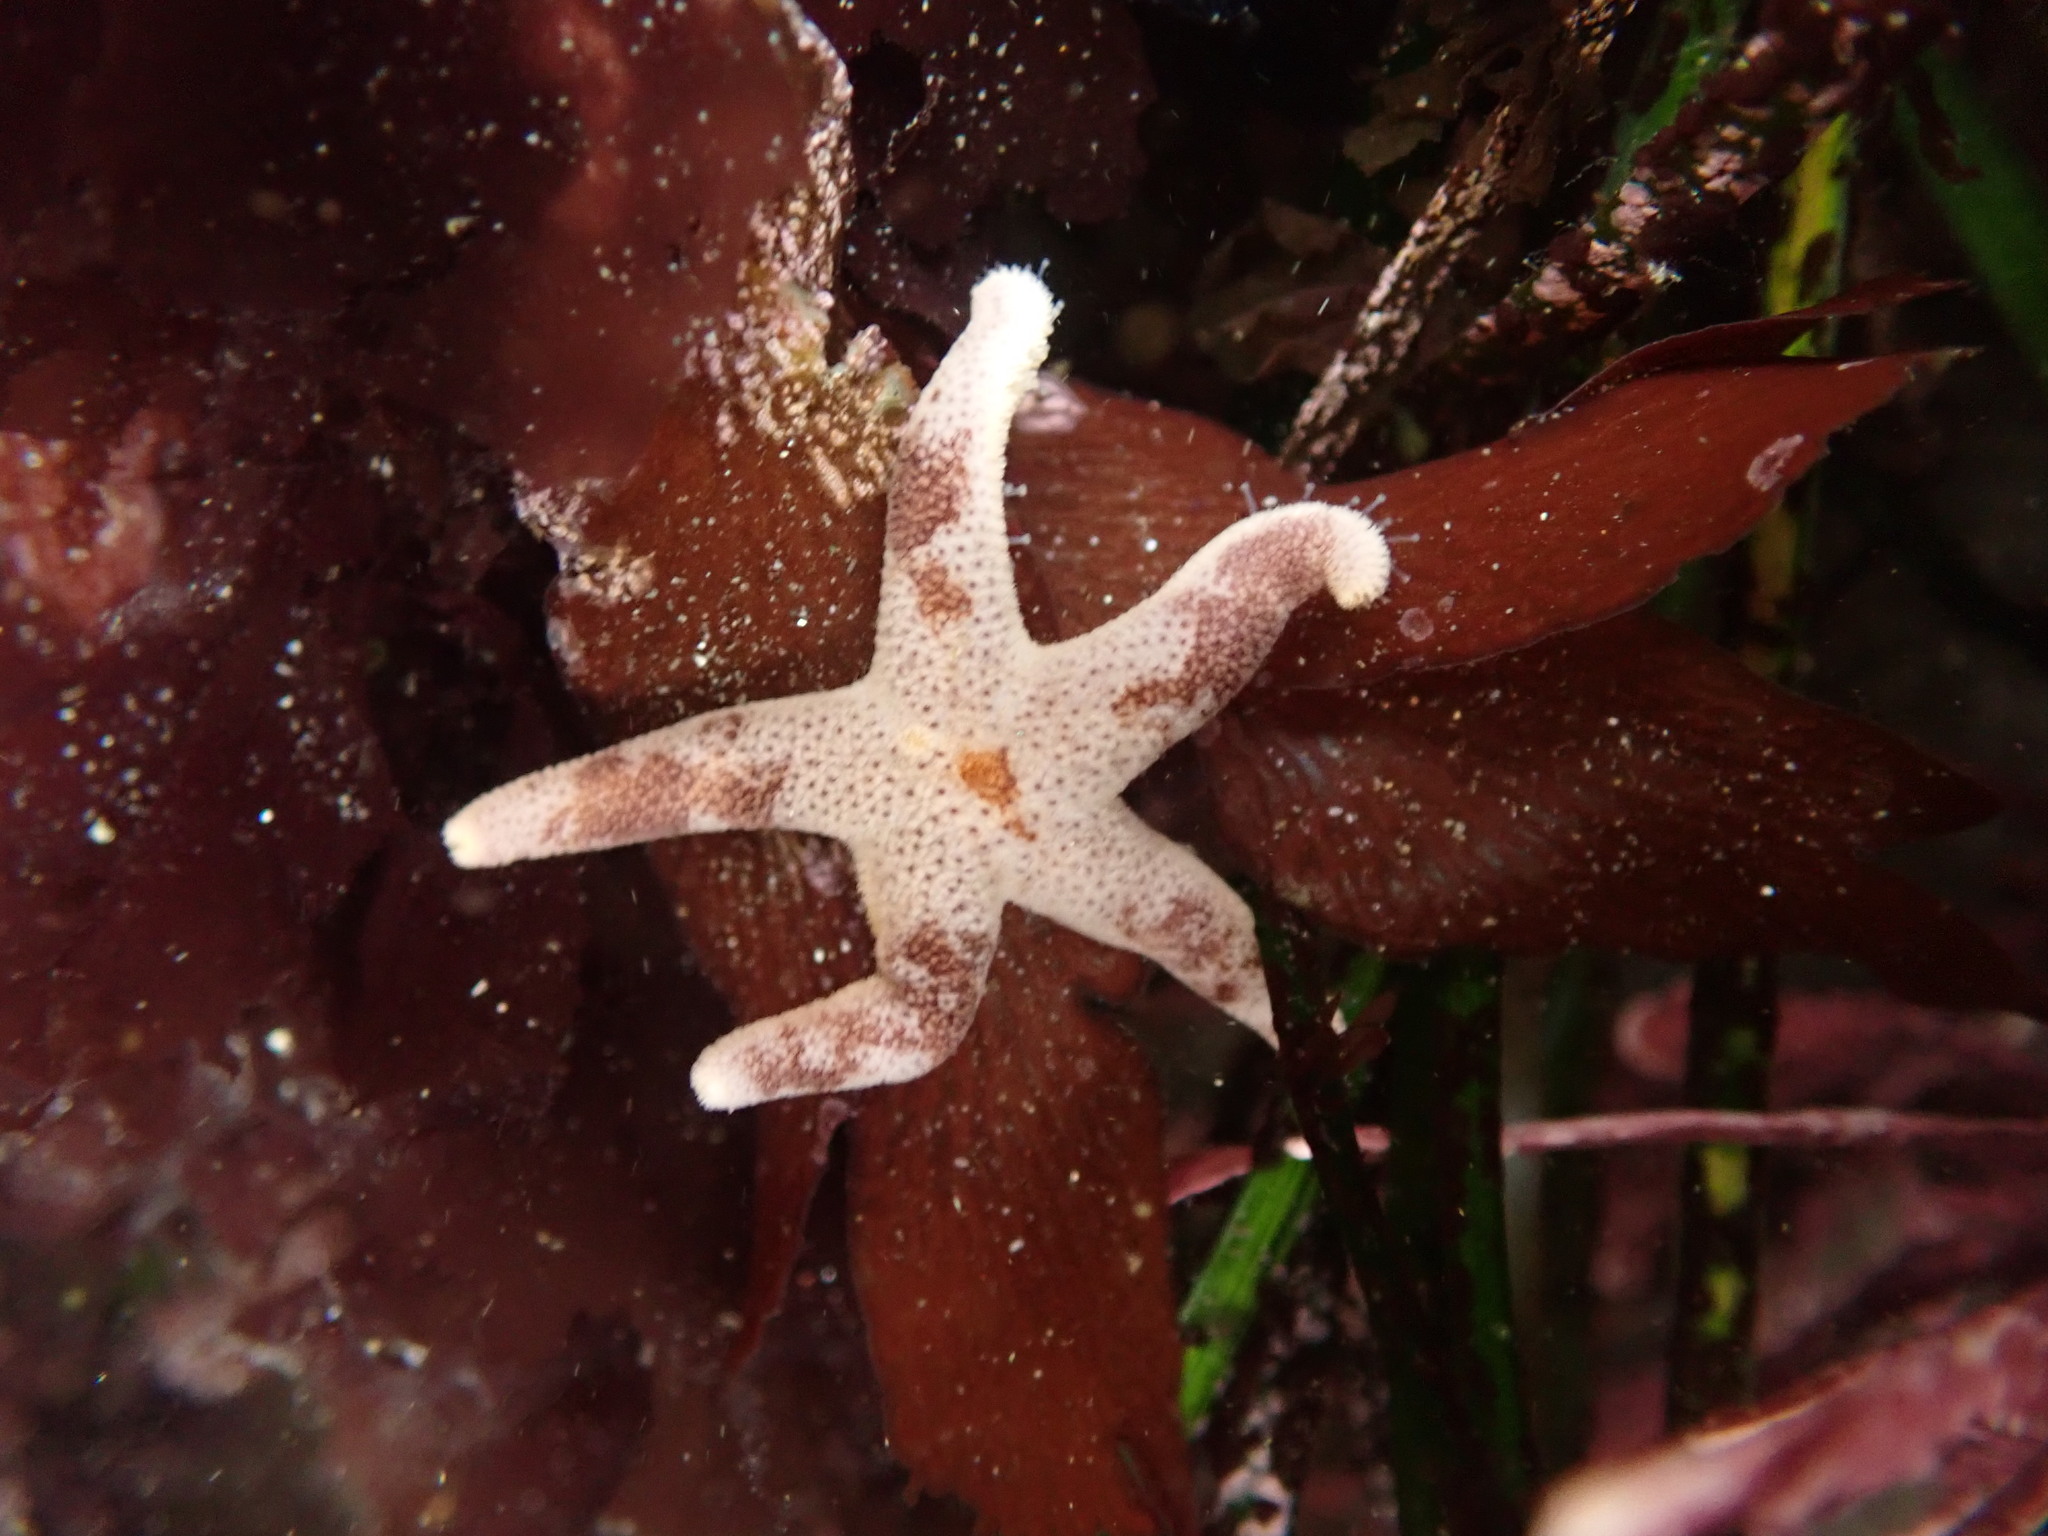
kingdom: Animalia
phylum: Echinodermata
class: Asteroidea
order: Spinulosida
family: Echinasteridae
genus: Henricia
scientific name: Henricia pumila
